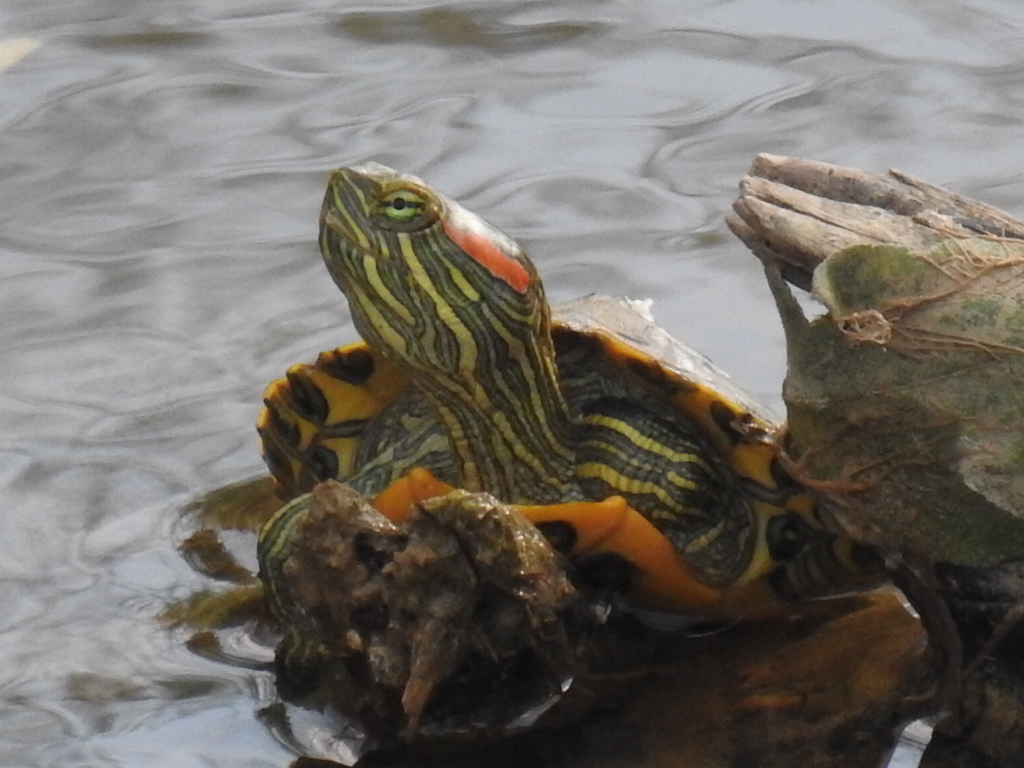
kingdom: Animalia
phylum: Chordata
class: Testudines
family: Emydidae
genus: Trachemys
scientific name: Trachemys scripta
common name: Slider
